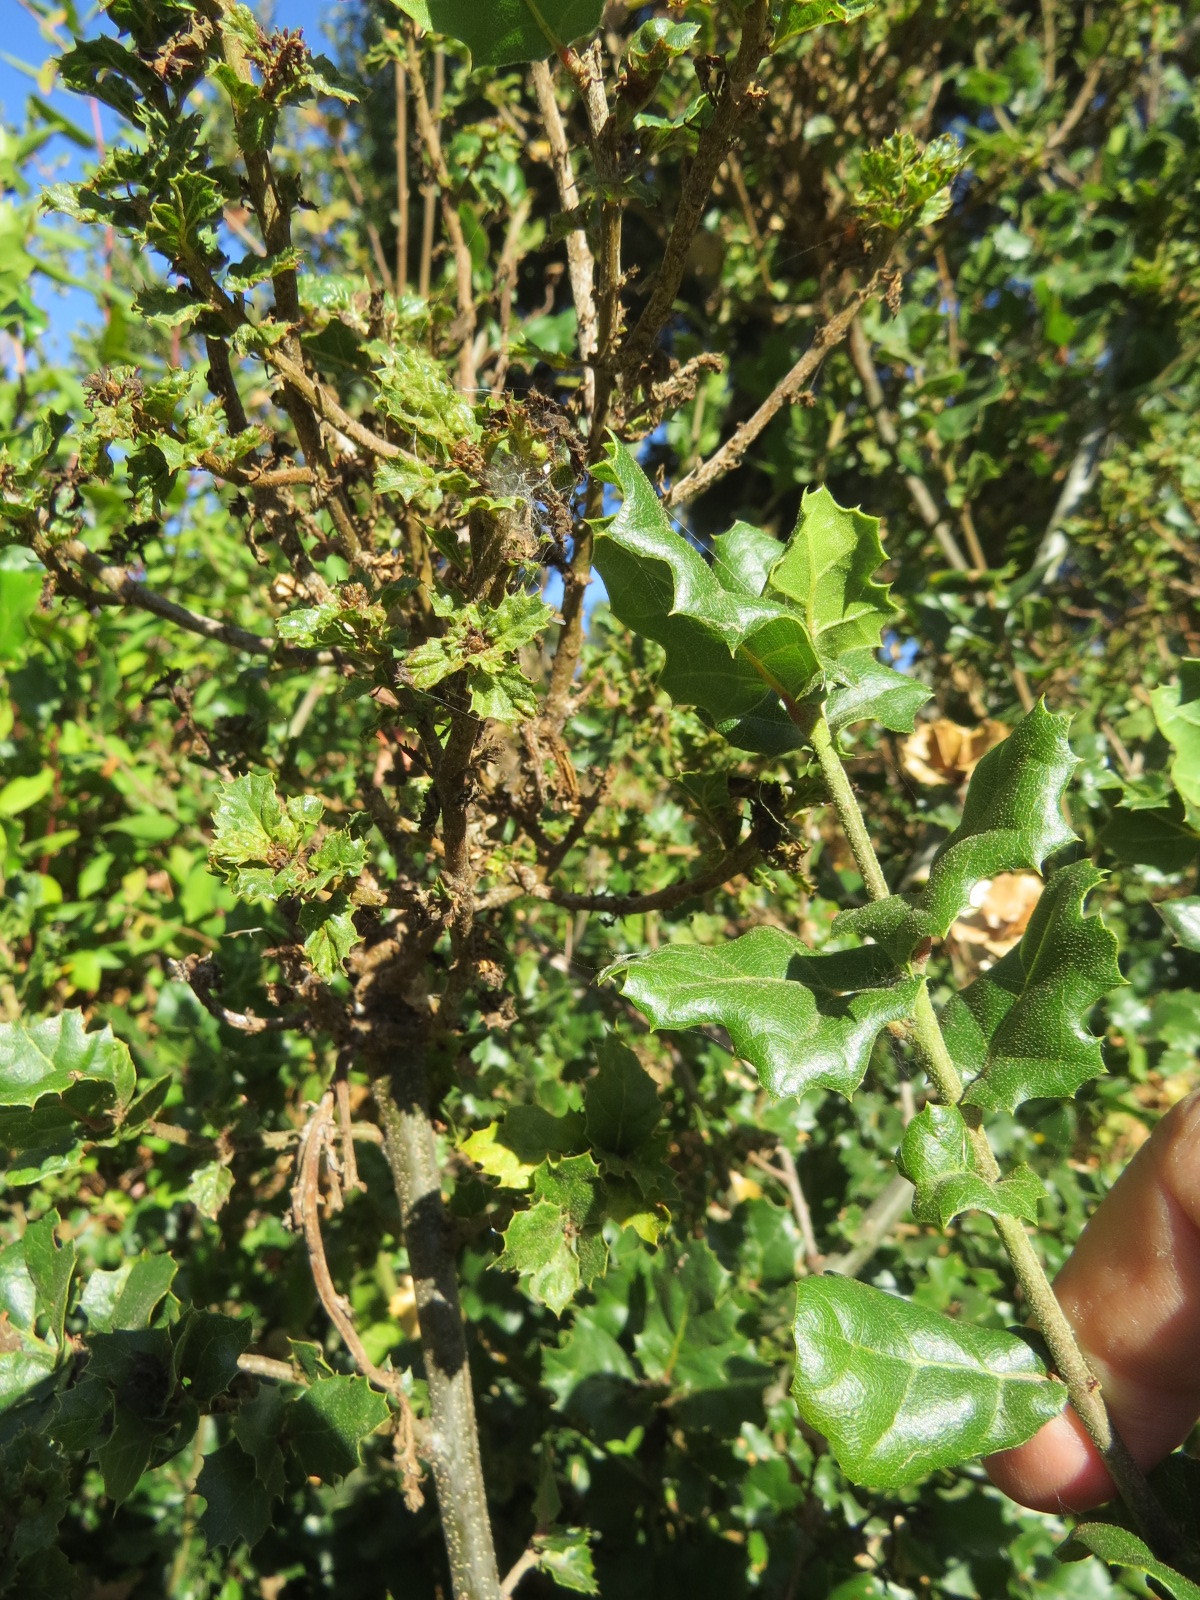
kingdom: Fungi
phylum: Ascomycota
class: Leotiomycetes
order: Helotiales
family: Erysiphaceae
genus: Cystotheca
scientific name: Cystotheca lanestris
